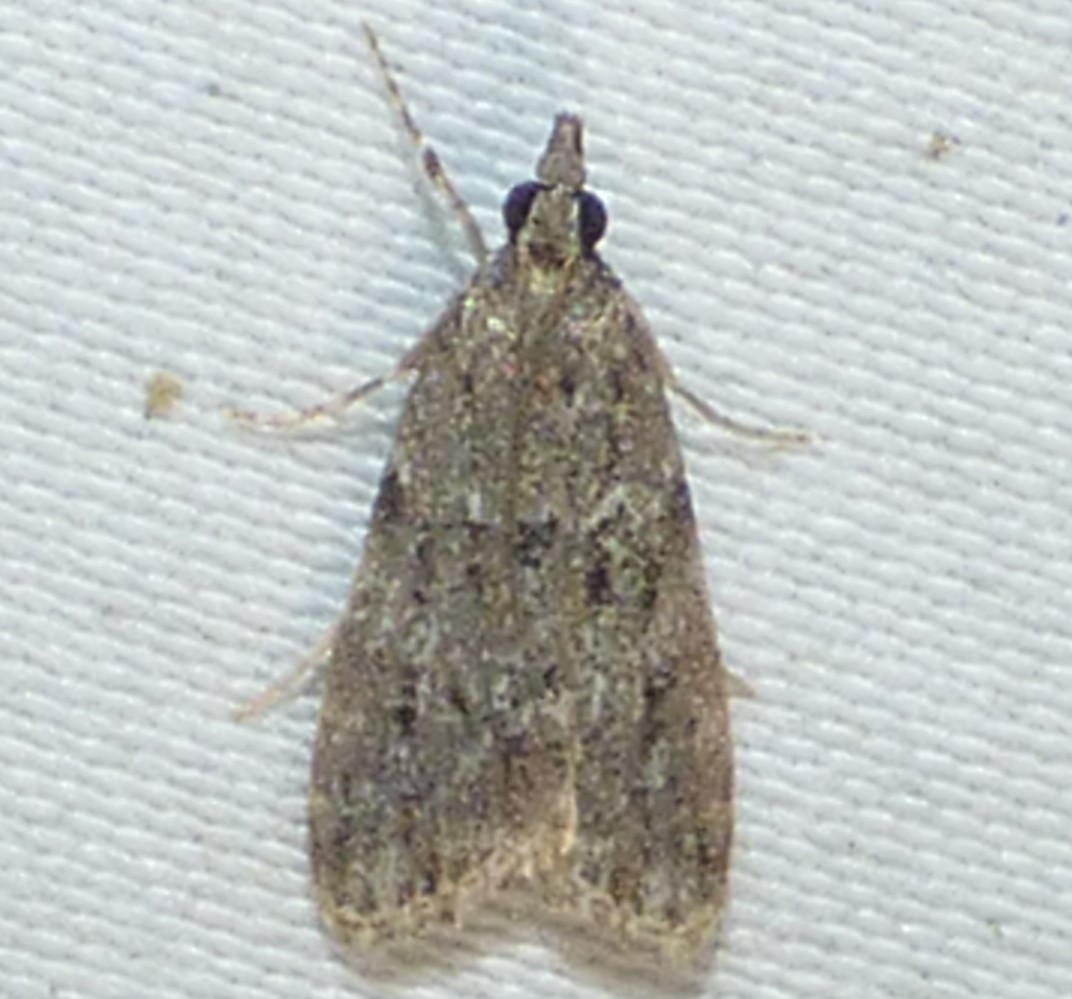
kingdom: Animalia
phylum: Arthropoda
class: Insecta
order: Lepidoptera
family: Crambidae
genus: Eudonia
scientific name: Eudonia heterosalis
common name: Mcdunnough's eudonia
